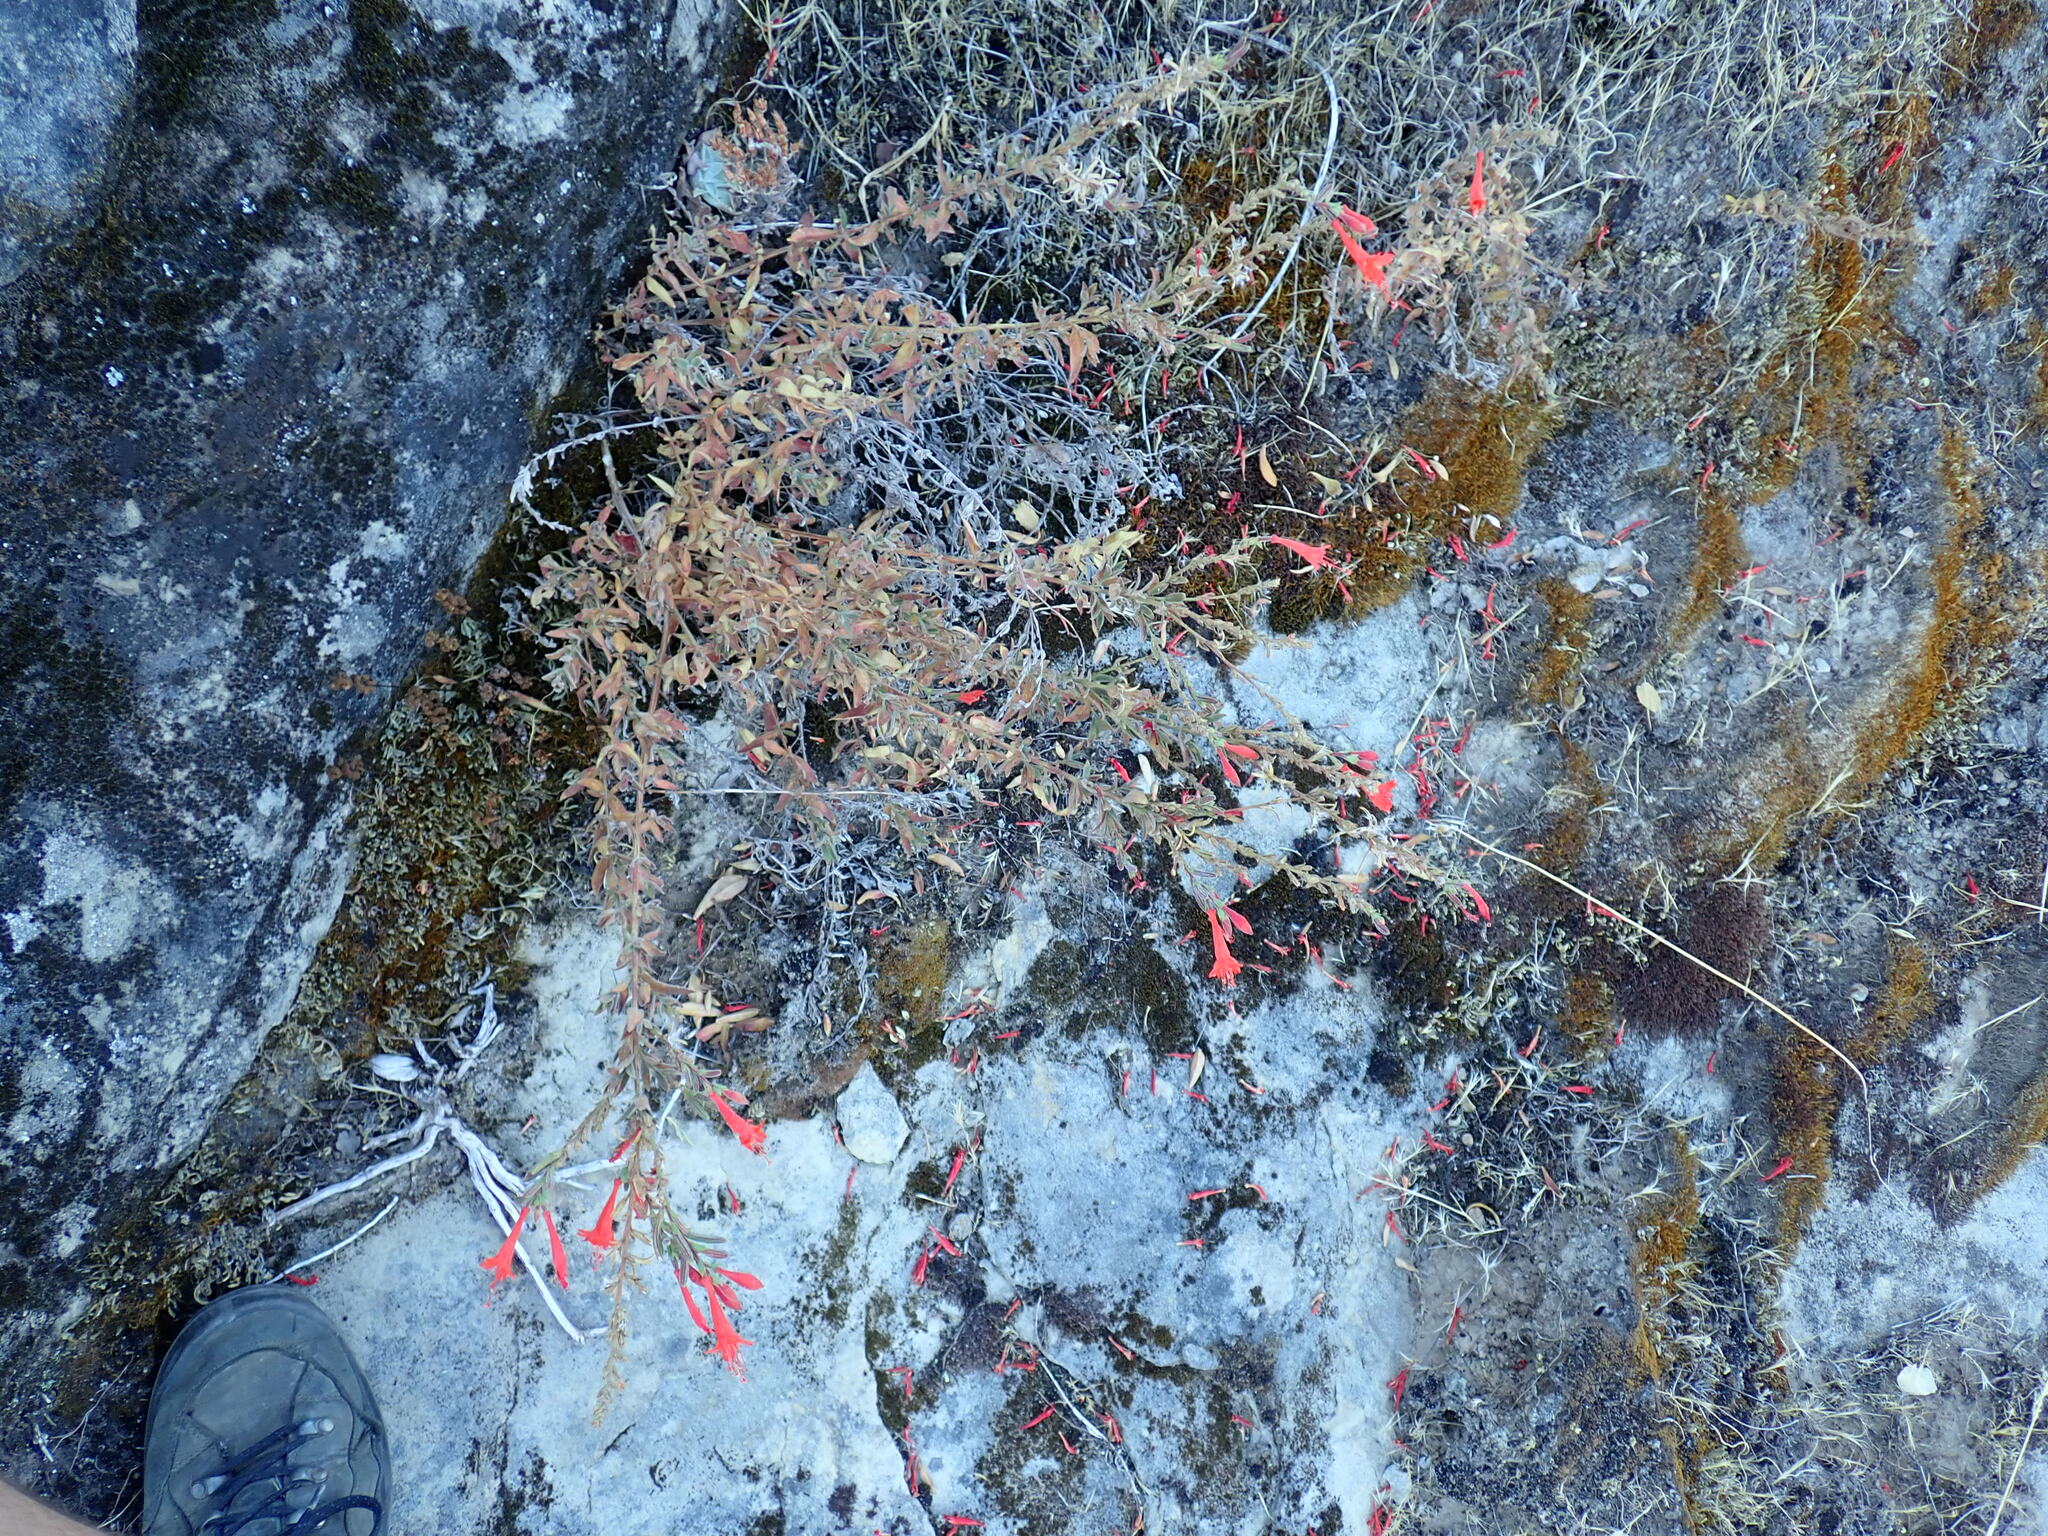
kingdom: Plantae
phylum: Tracheophyta
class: Magnoliopsida
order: Myrtales
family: Onagraceae
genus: Epilobium
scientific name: Epilobium canum
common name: California-fuchsia
